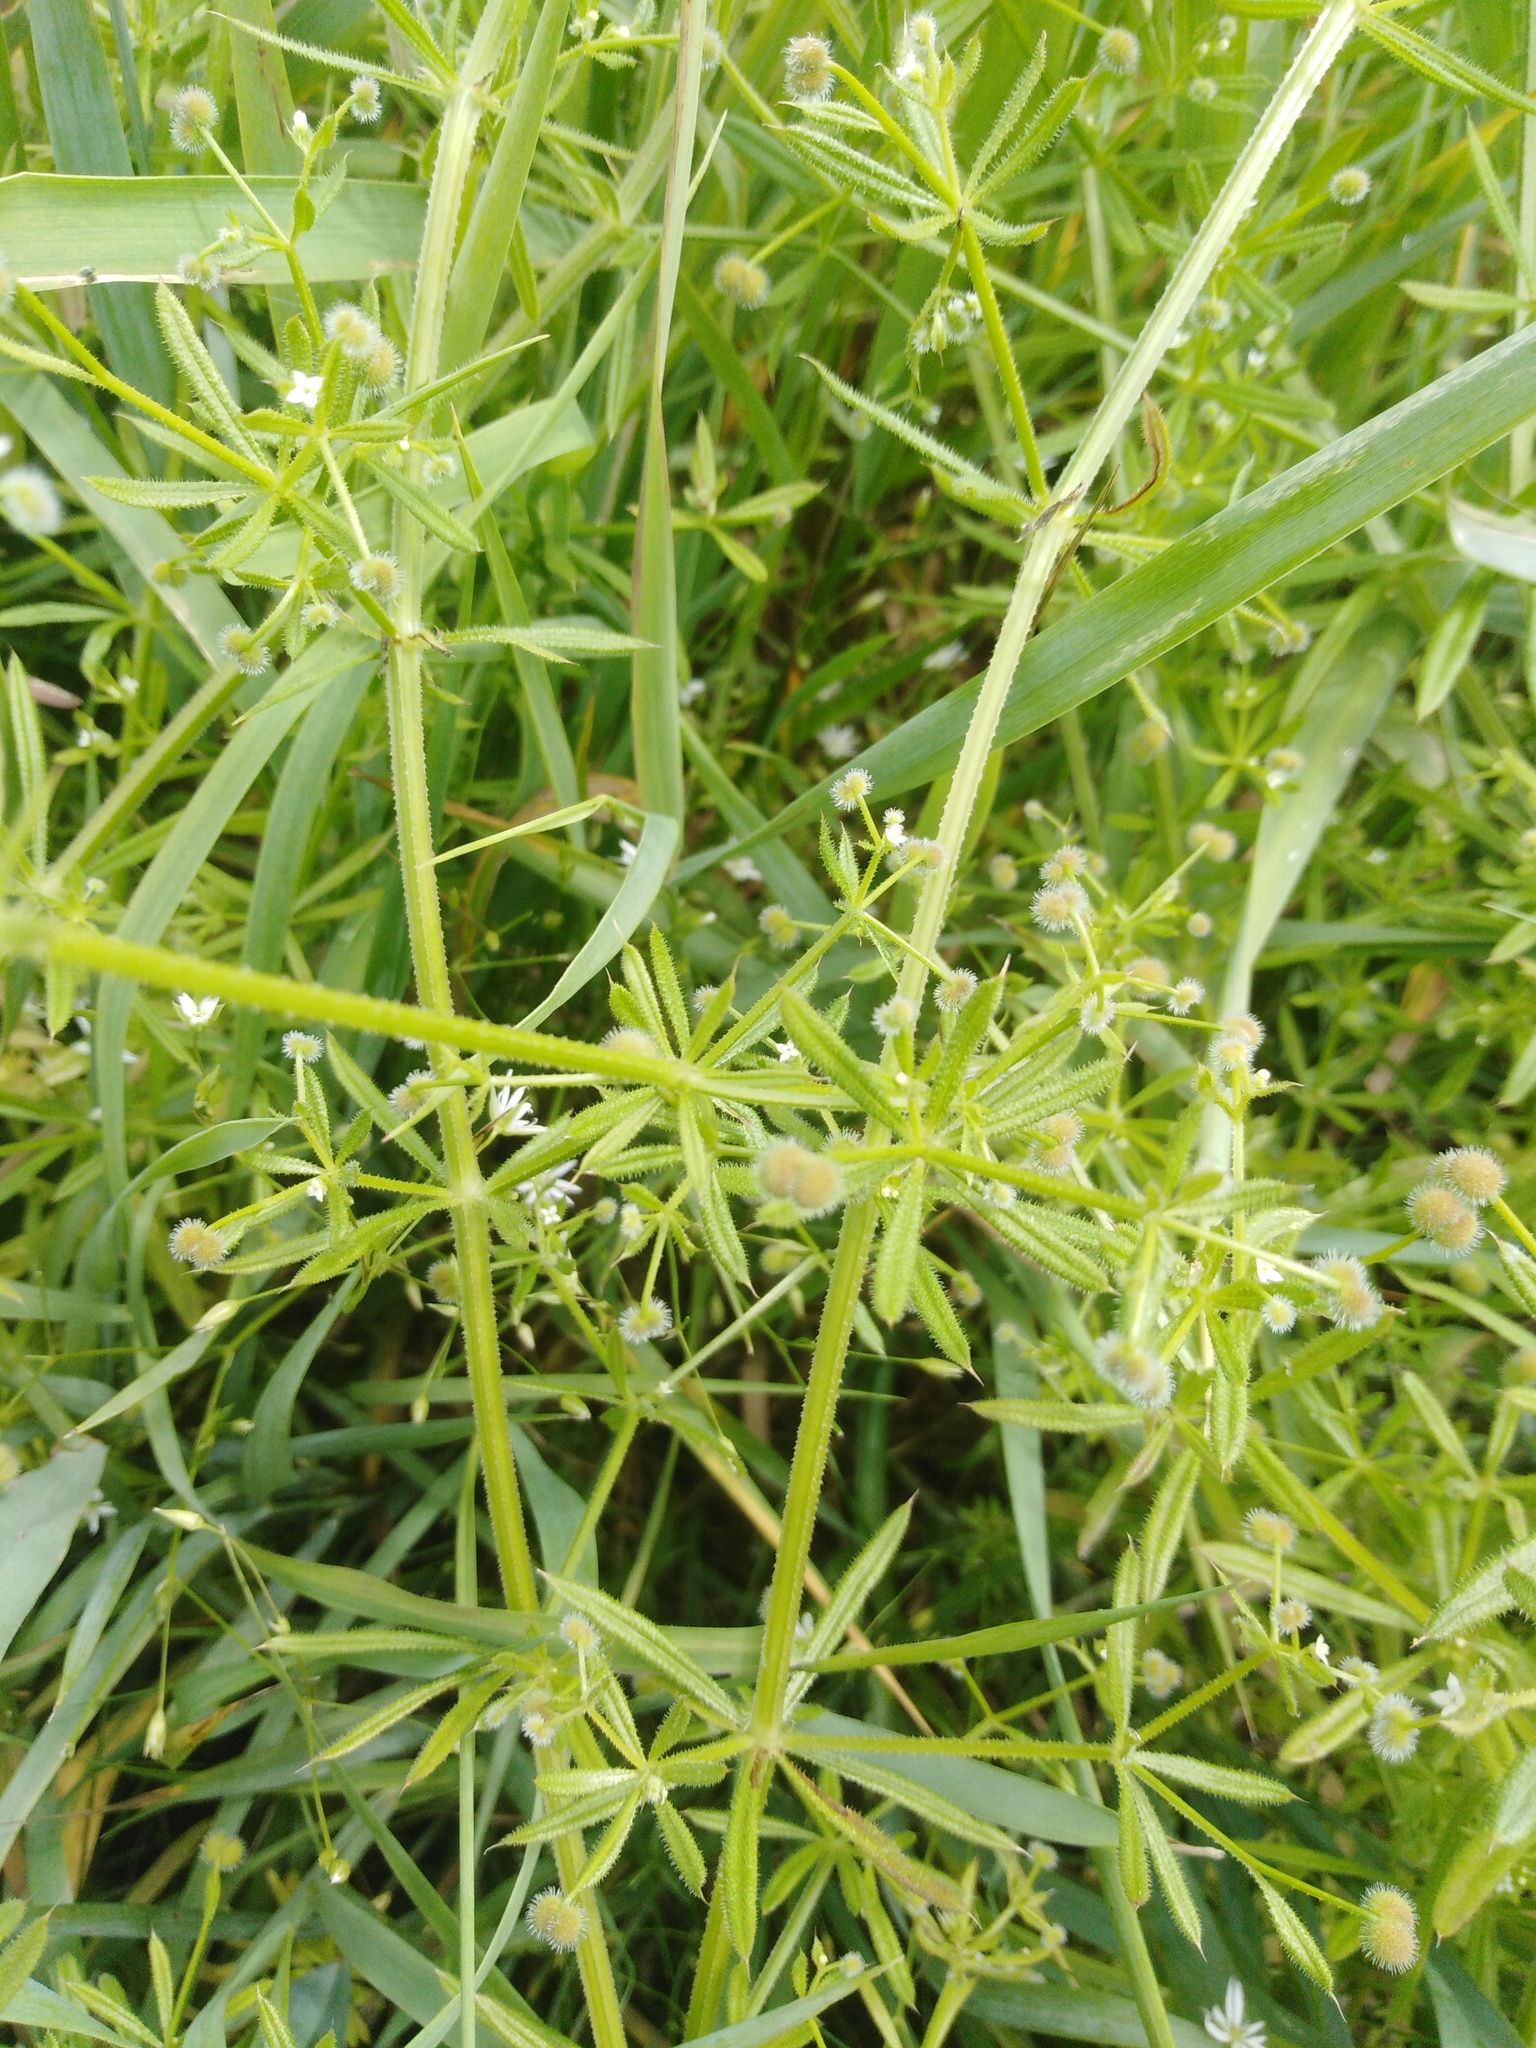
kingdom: Plantae
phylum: Tracheophyta
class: Magnoliopsida
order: Gentianales
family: Rubiaceae
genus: Galium
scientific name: Galium aparine
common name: Cleavers
